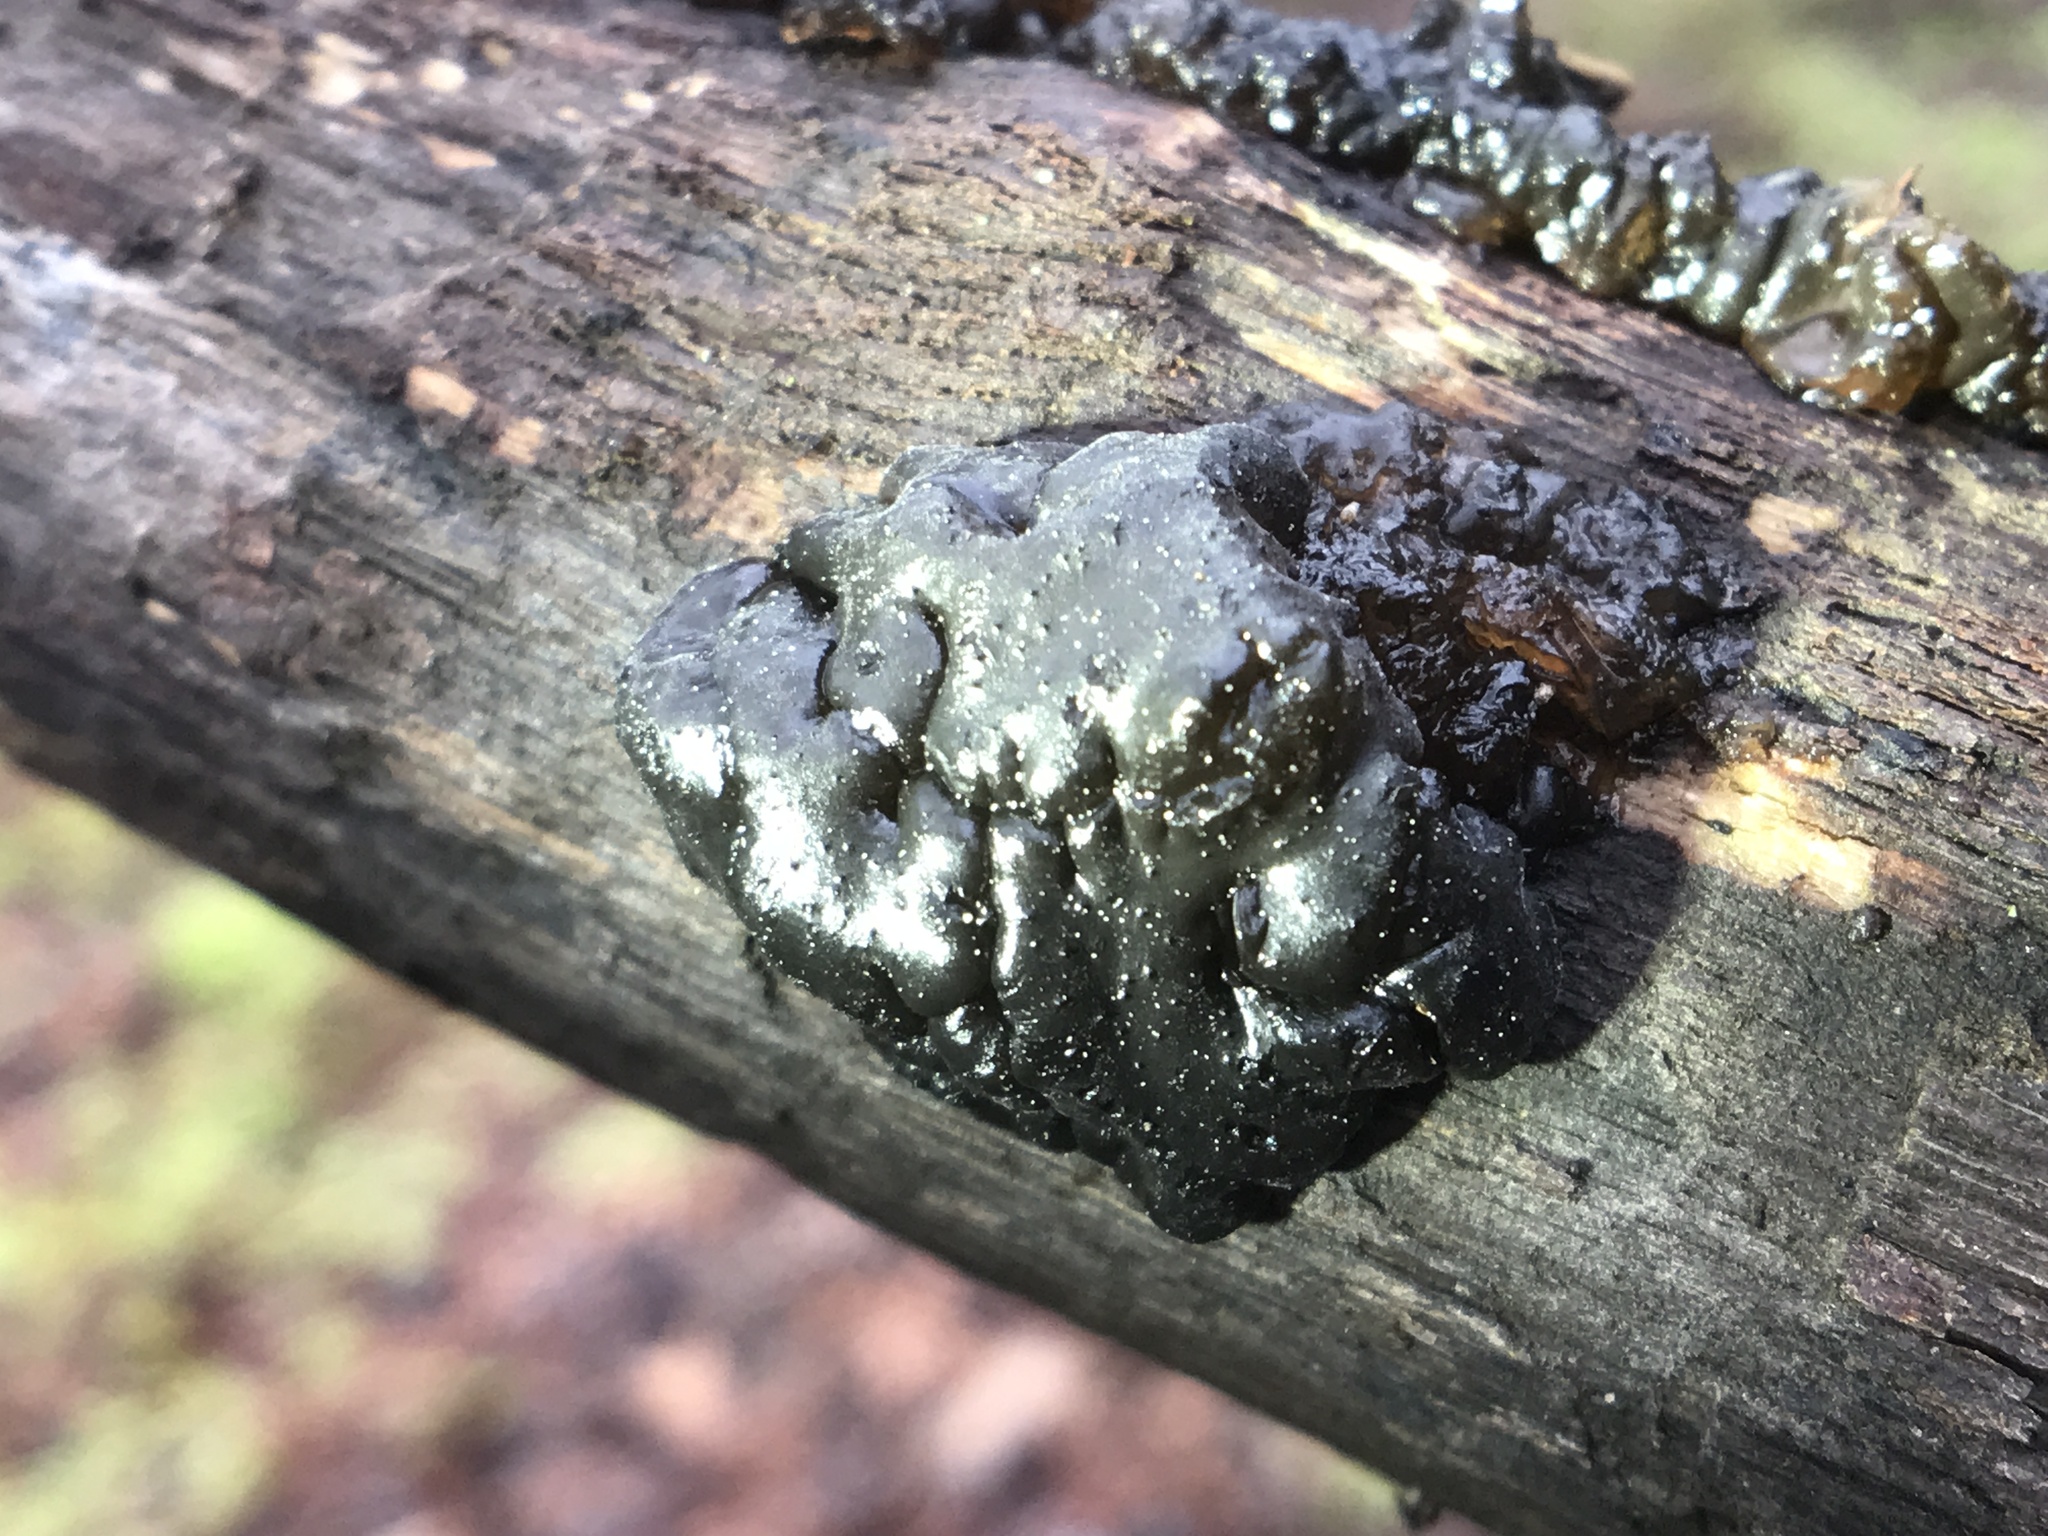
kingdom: Fungi
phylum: Basidiomycota
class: Agaricomycetes
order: Auriculariales
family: Auriculariaceae
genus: Exidia
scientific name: Exidia glandulosa
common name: Witches' butter
